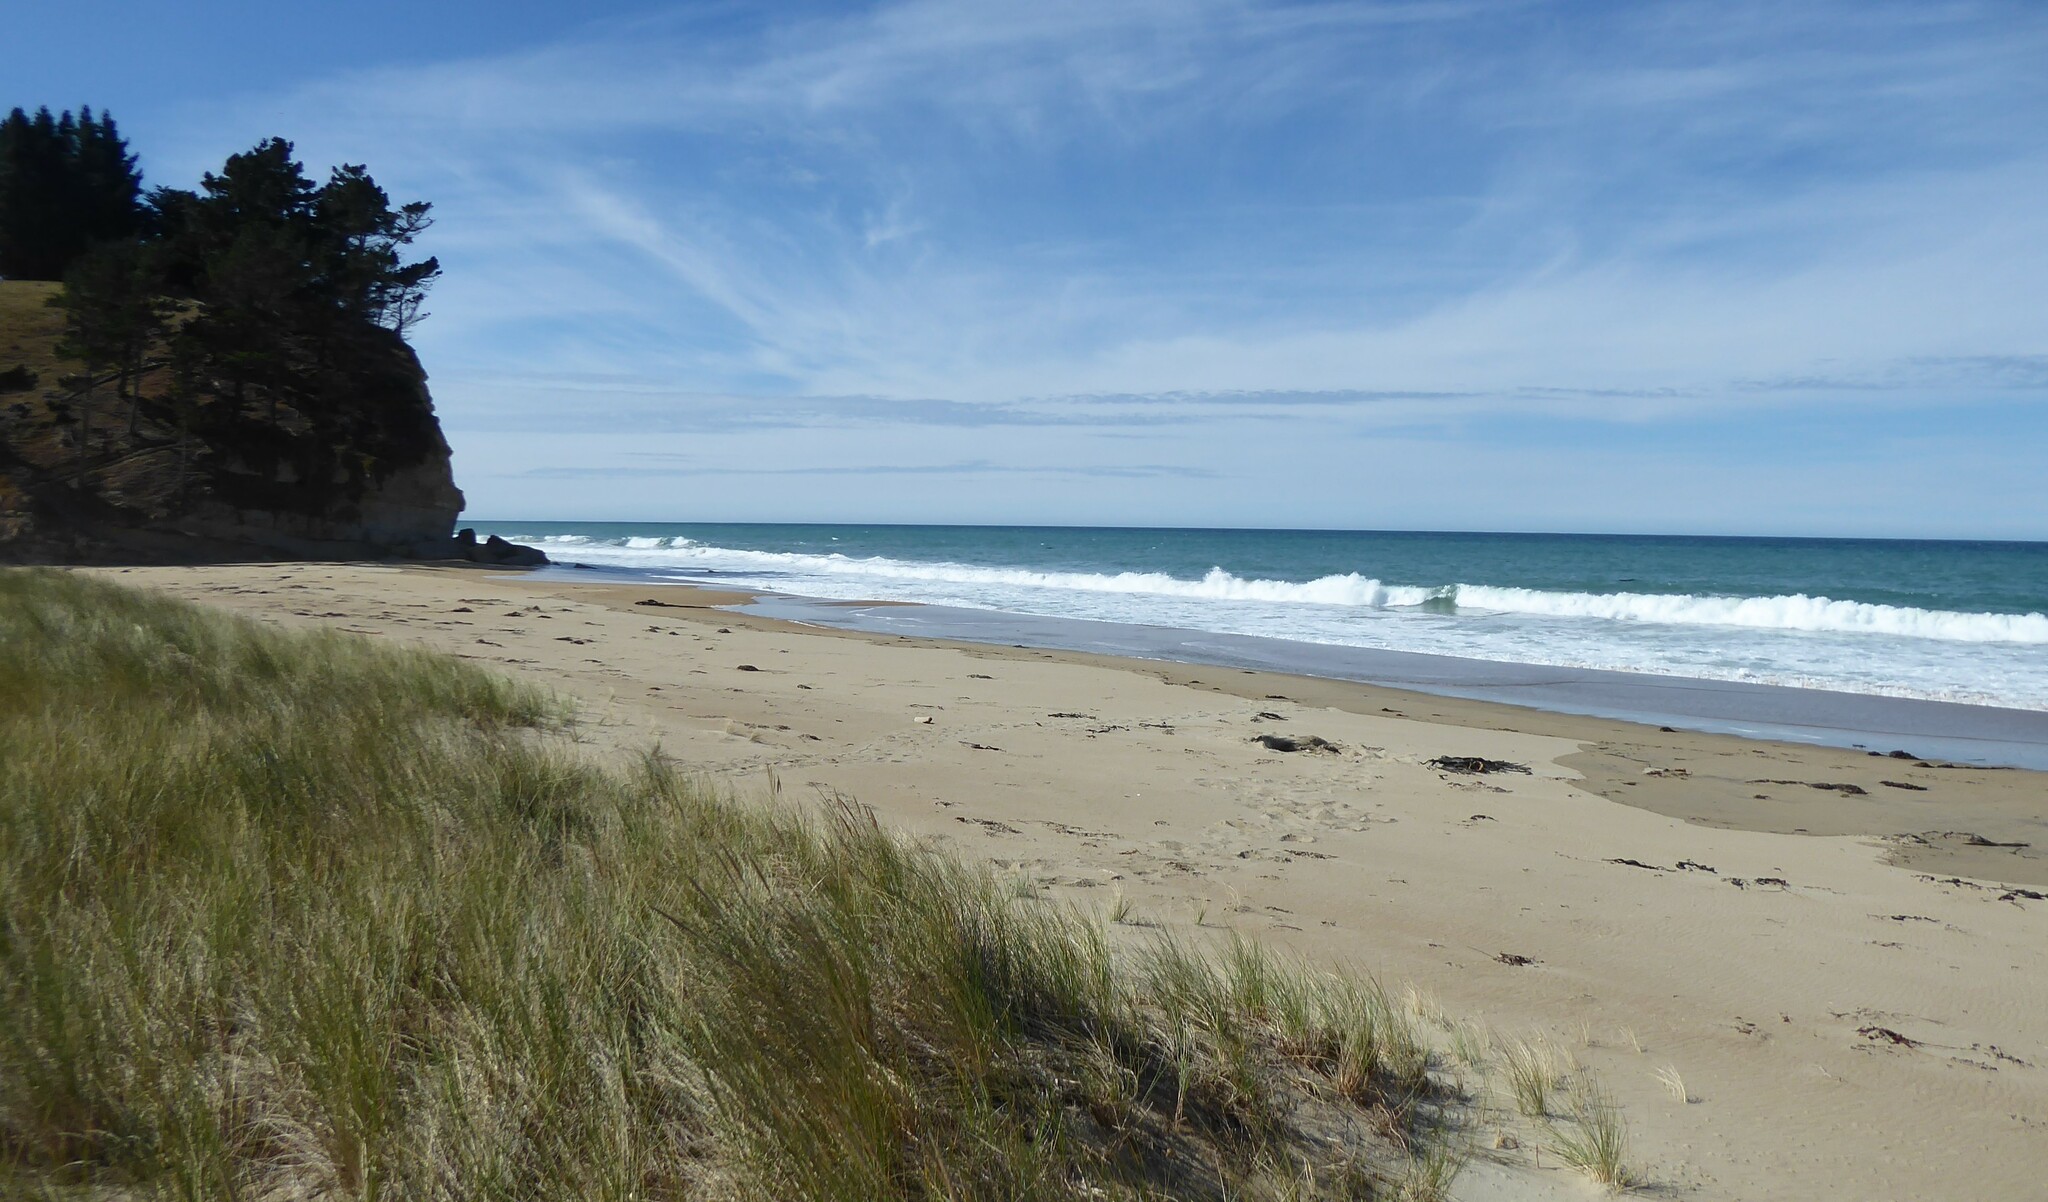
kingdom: Animalia
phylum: Chordata
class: Mammalia
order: Carnivora
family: Otariidae
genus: Phocarctos
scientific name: Phocarctos hookeri
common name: New zealand sea lion
